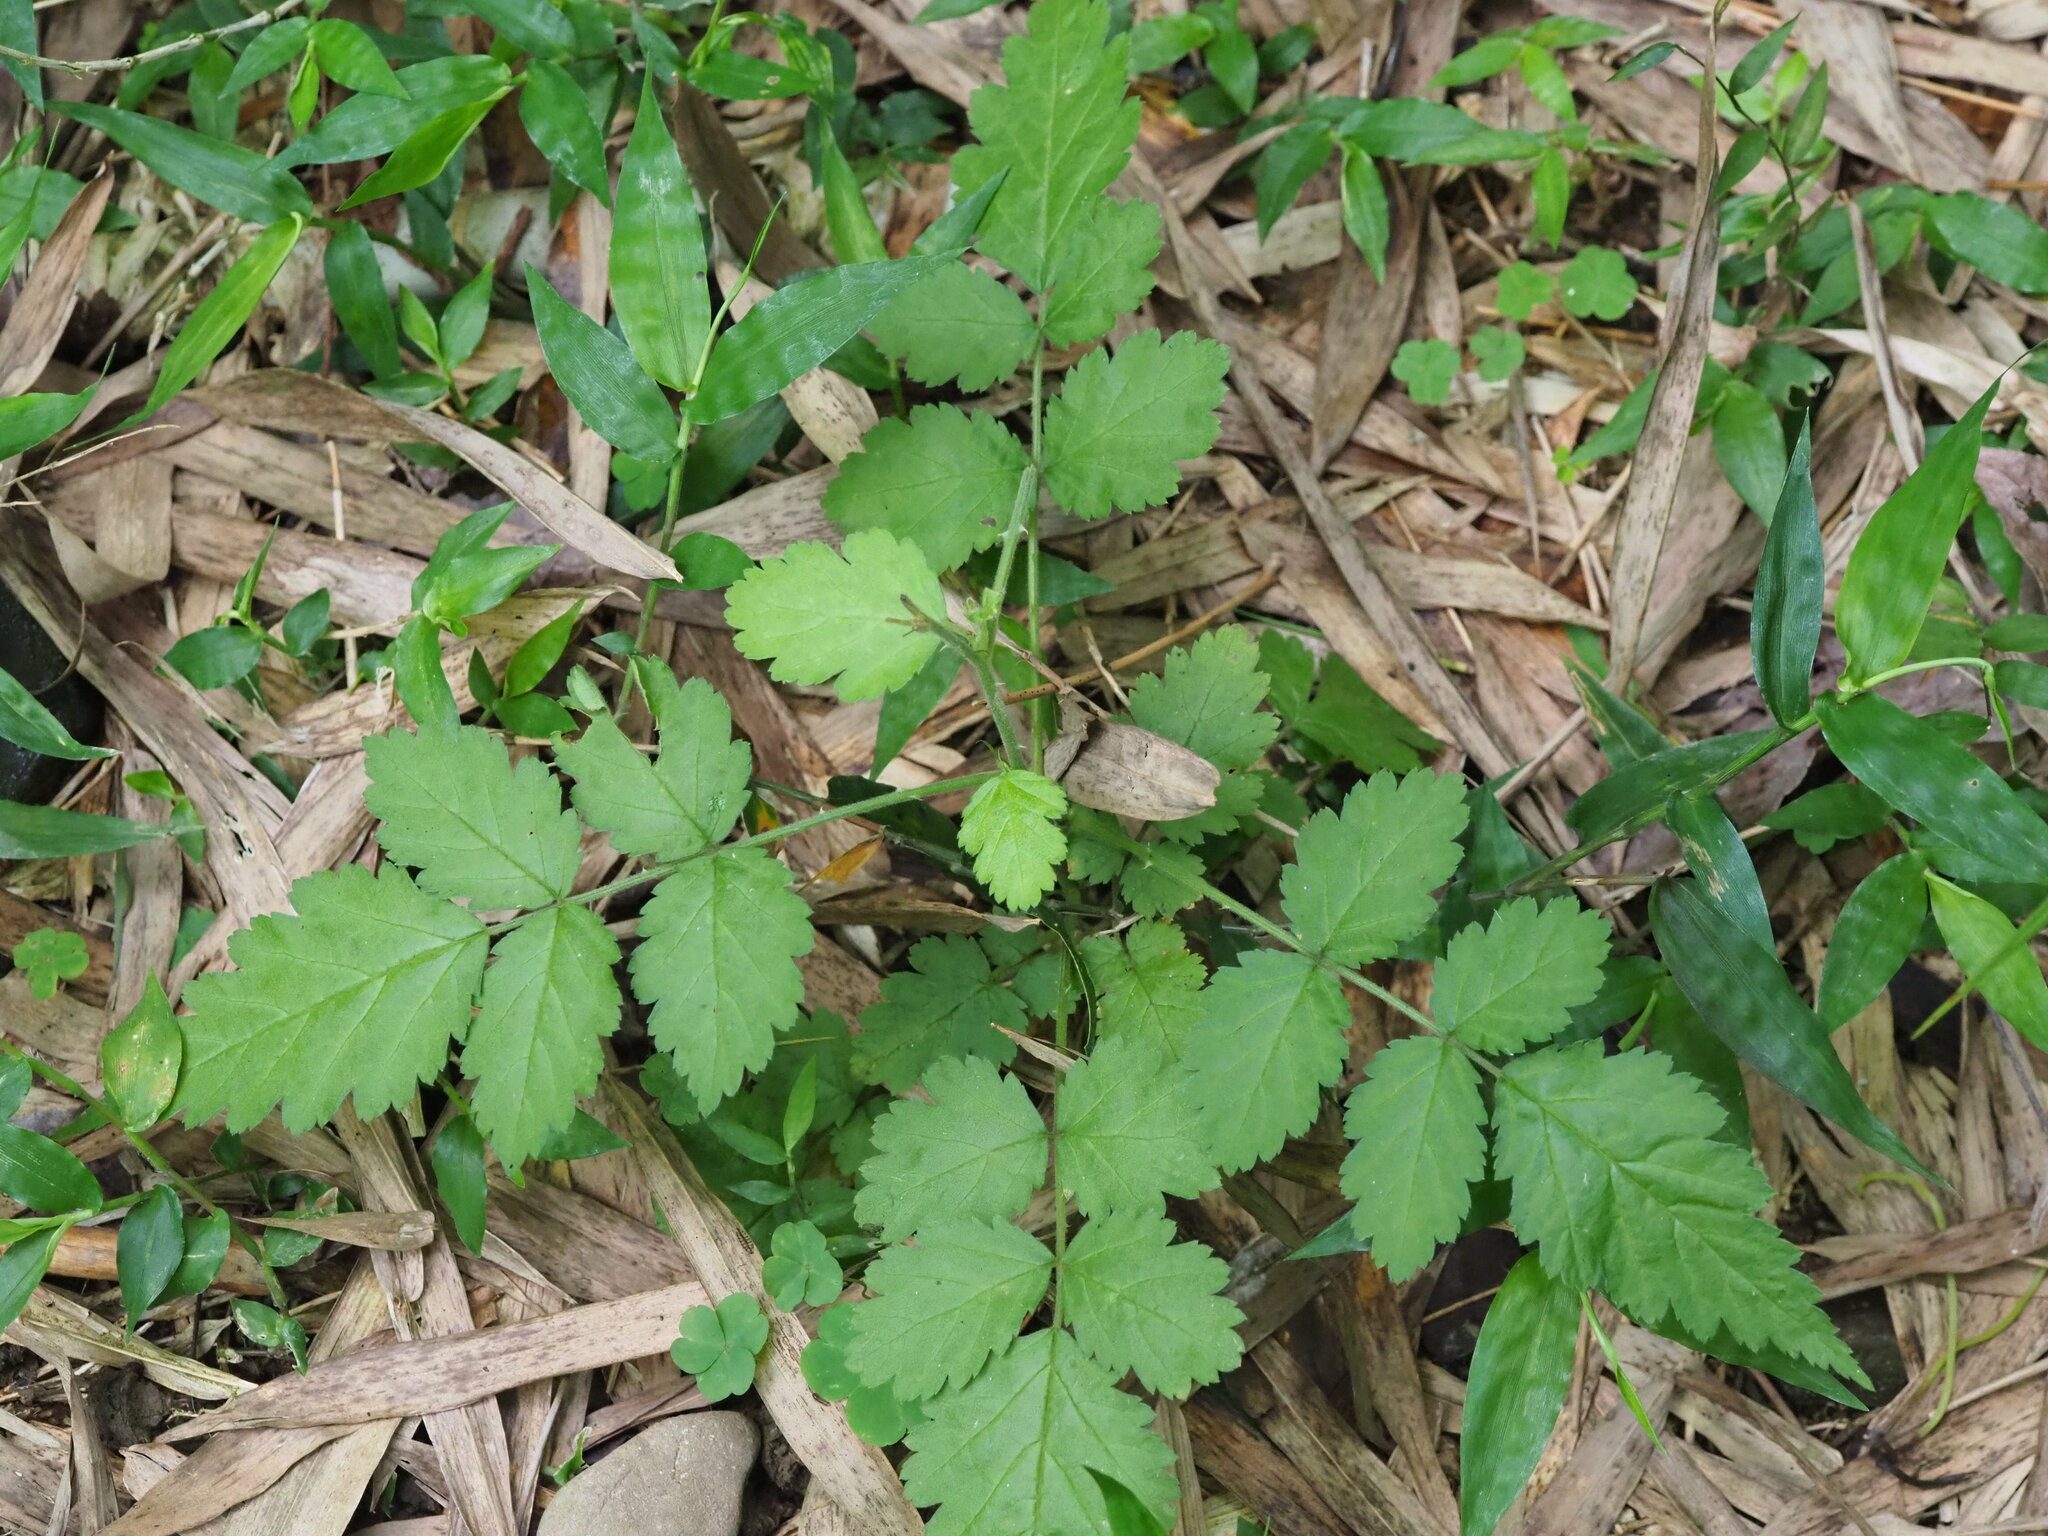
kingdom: Plantae
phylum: Tracheophyta
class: Magnoliopsida
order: Rosales
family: Rosaceae
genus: Rubus
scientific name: Rubus rosifolius
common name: Roseleaf raspberry
